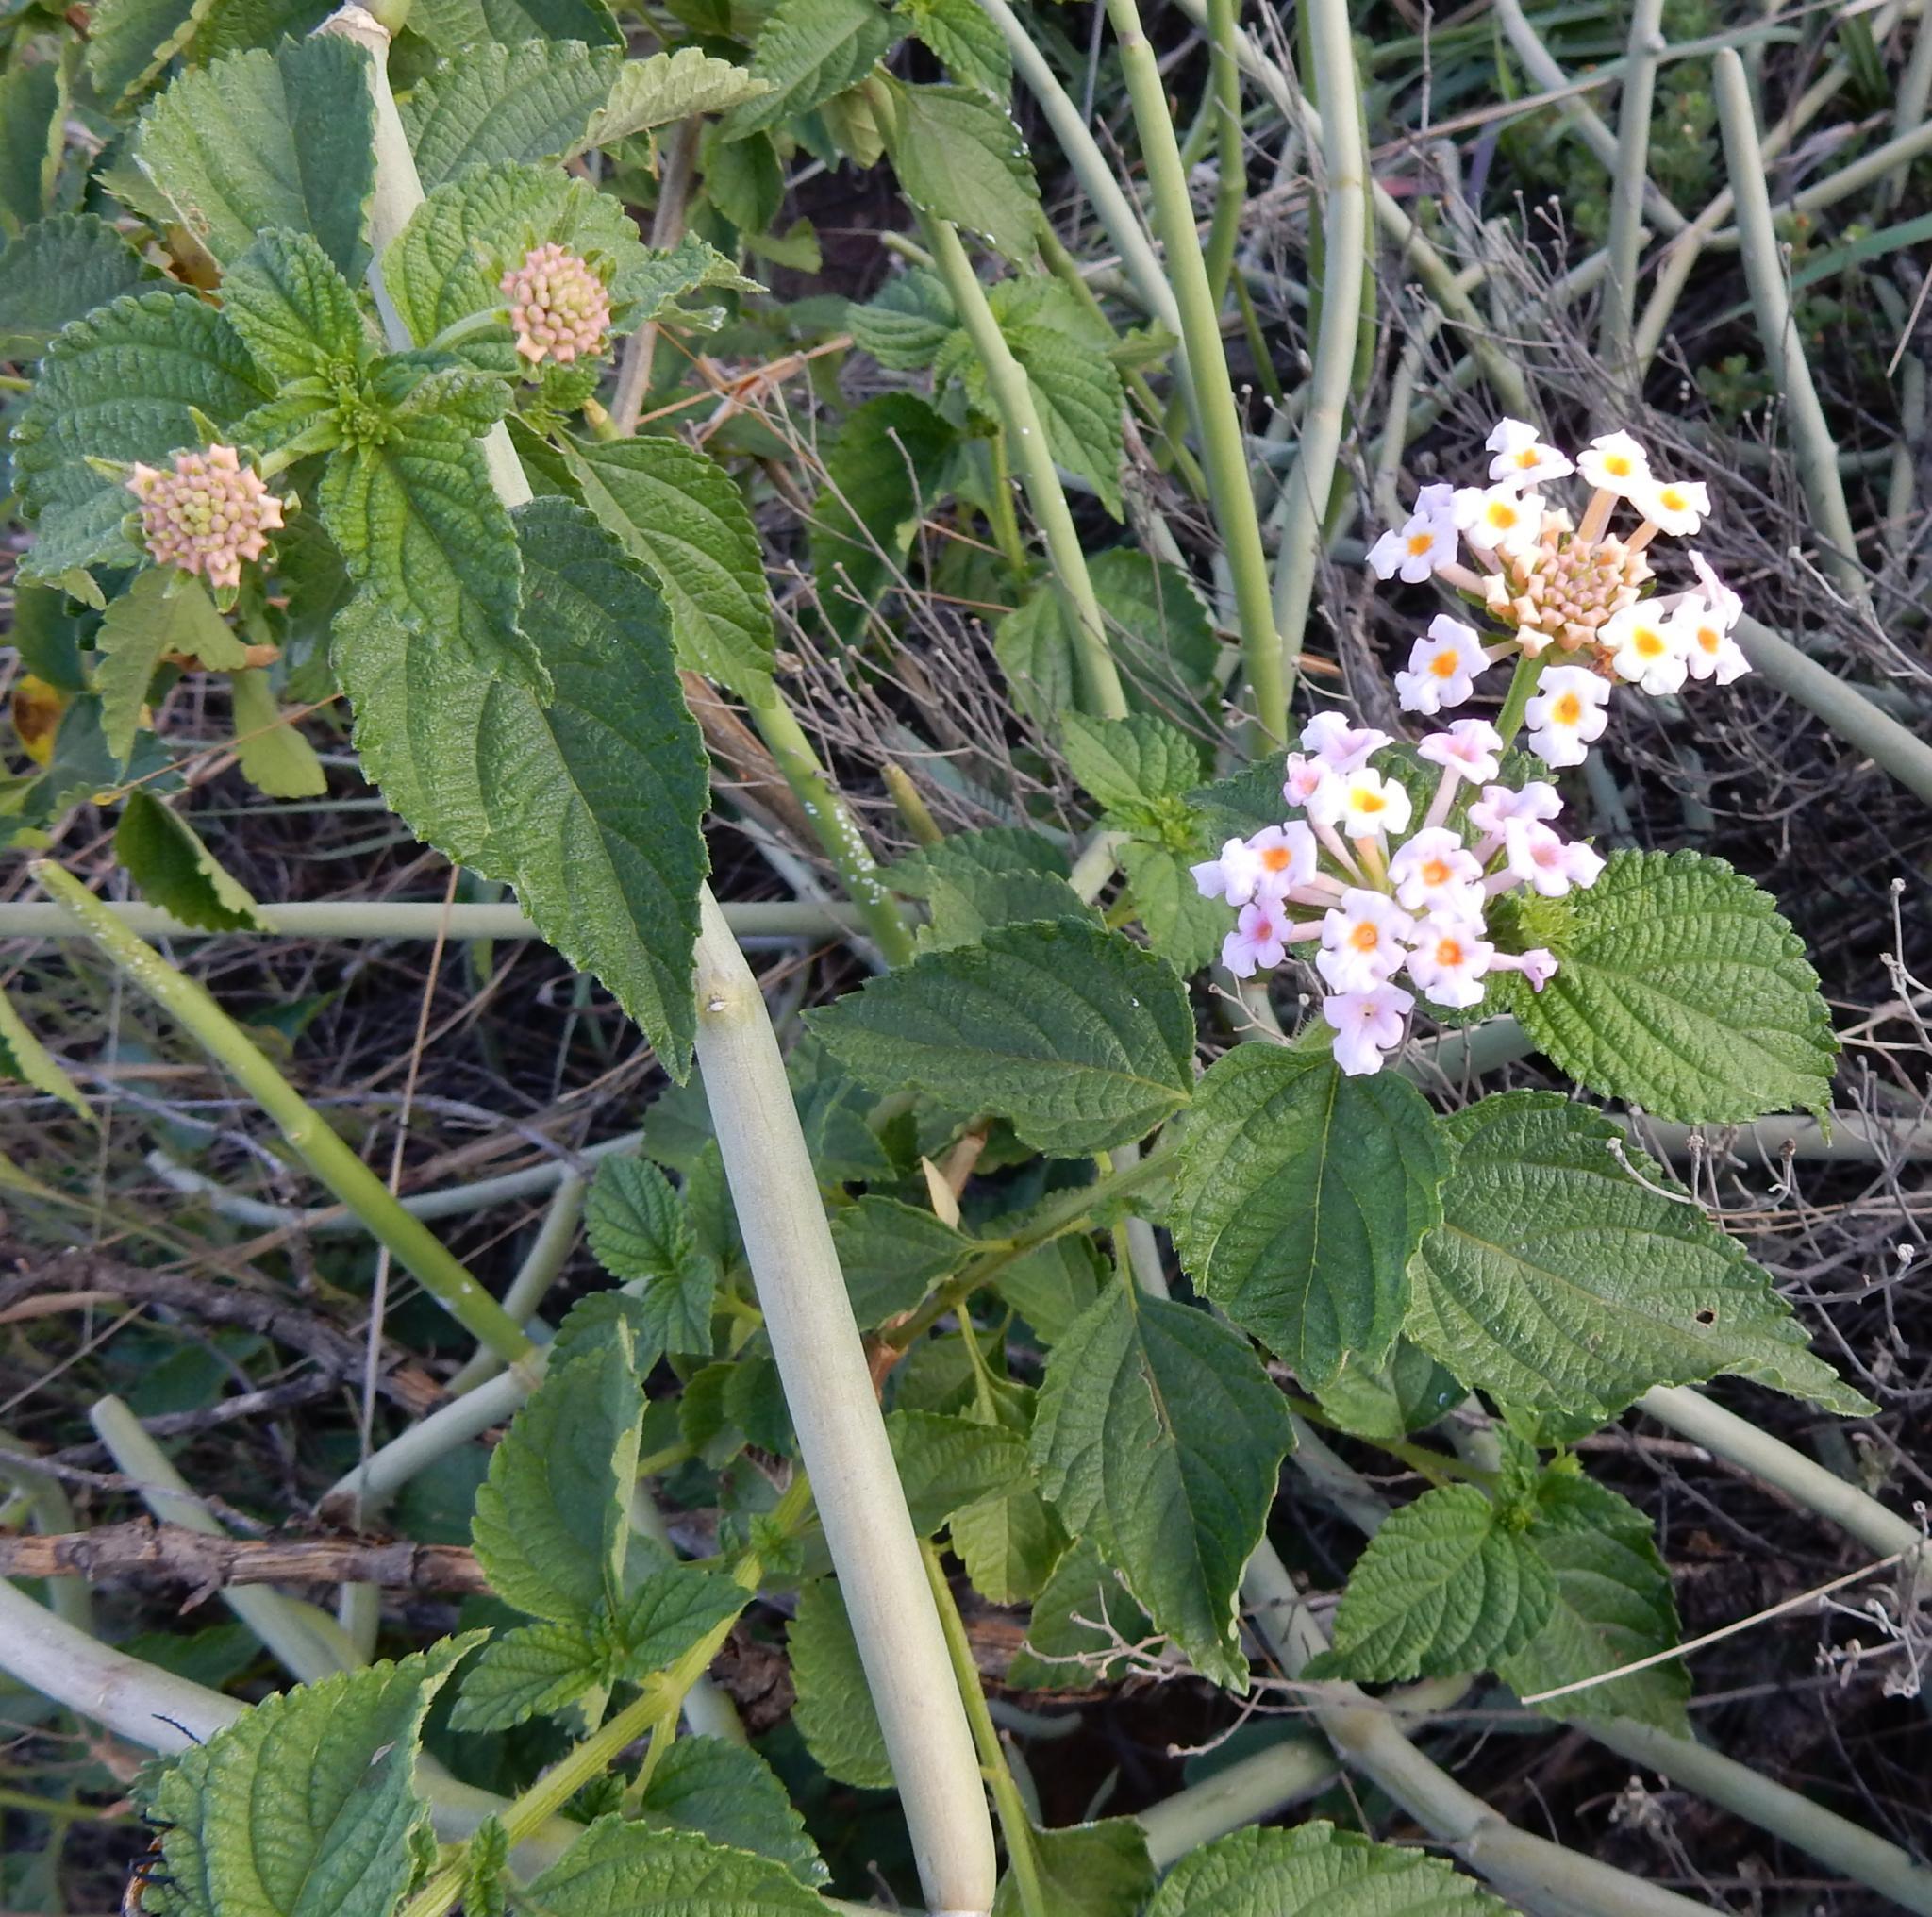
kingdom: Plantae
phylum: Tracheophyta
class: Magnoliopsida
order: Lamiales
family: Verbenaceae
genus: Lantana
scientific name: Lantana camara
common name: Lantana
